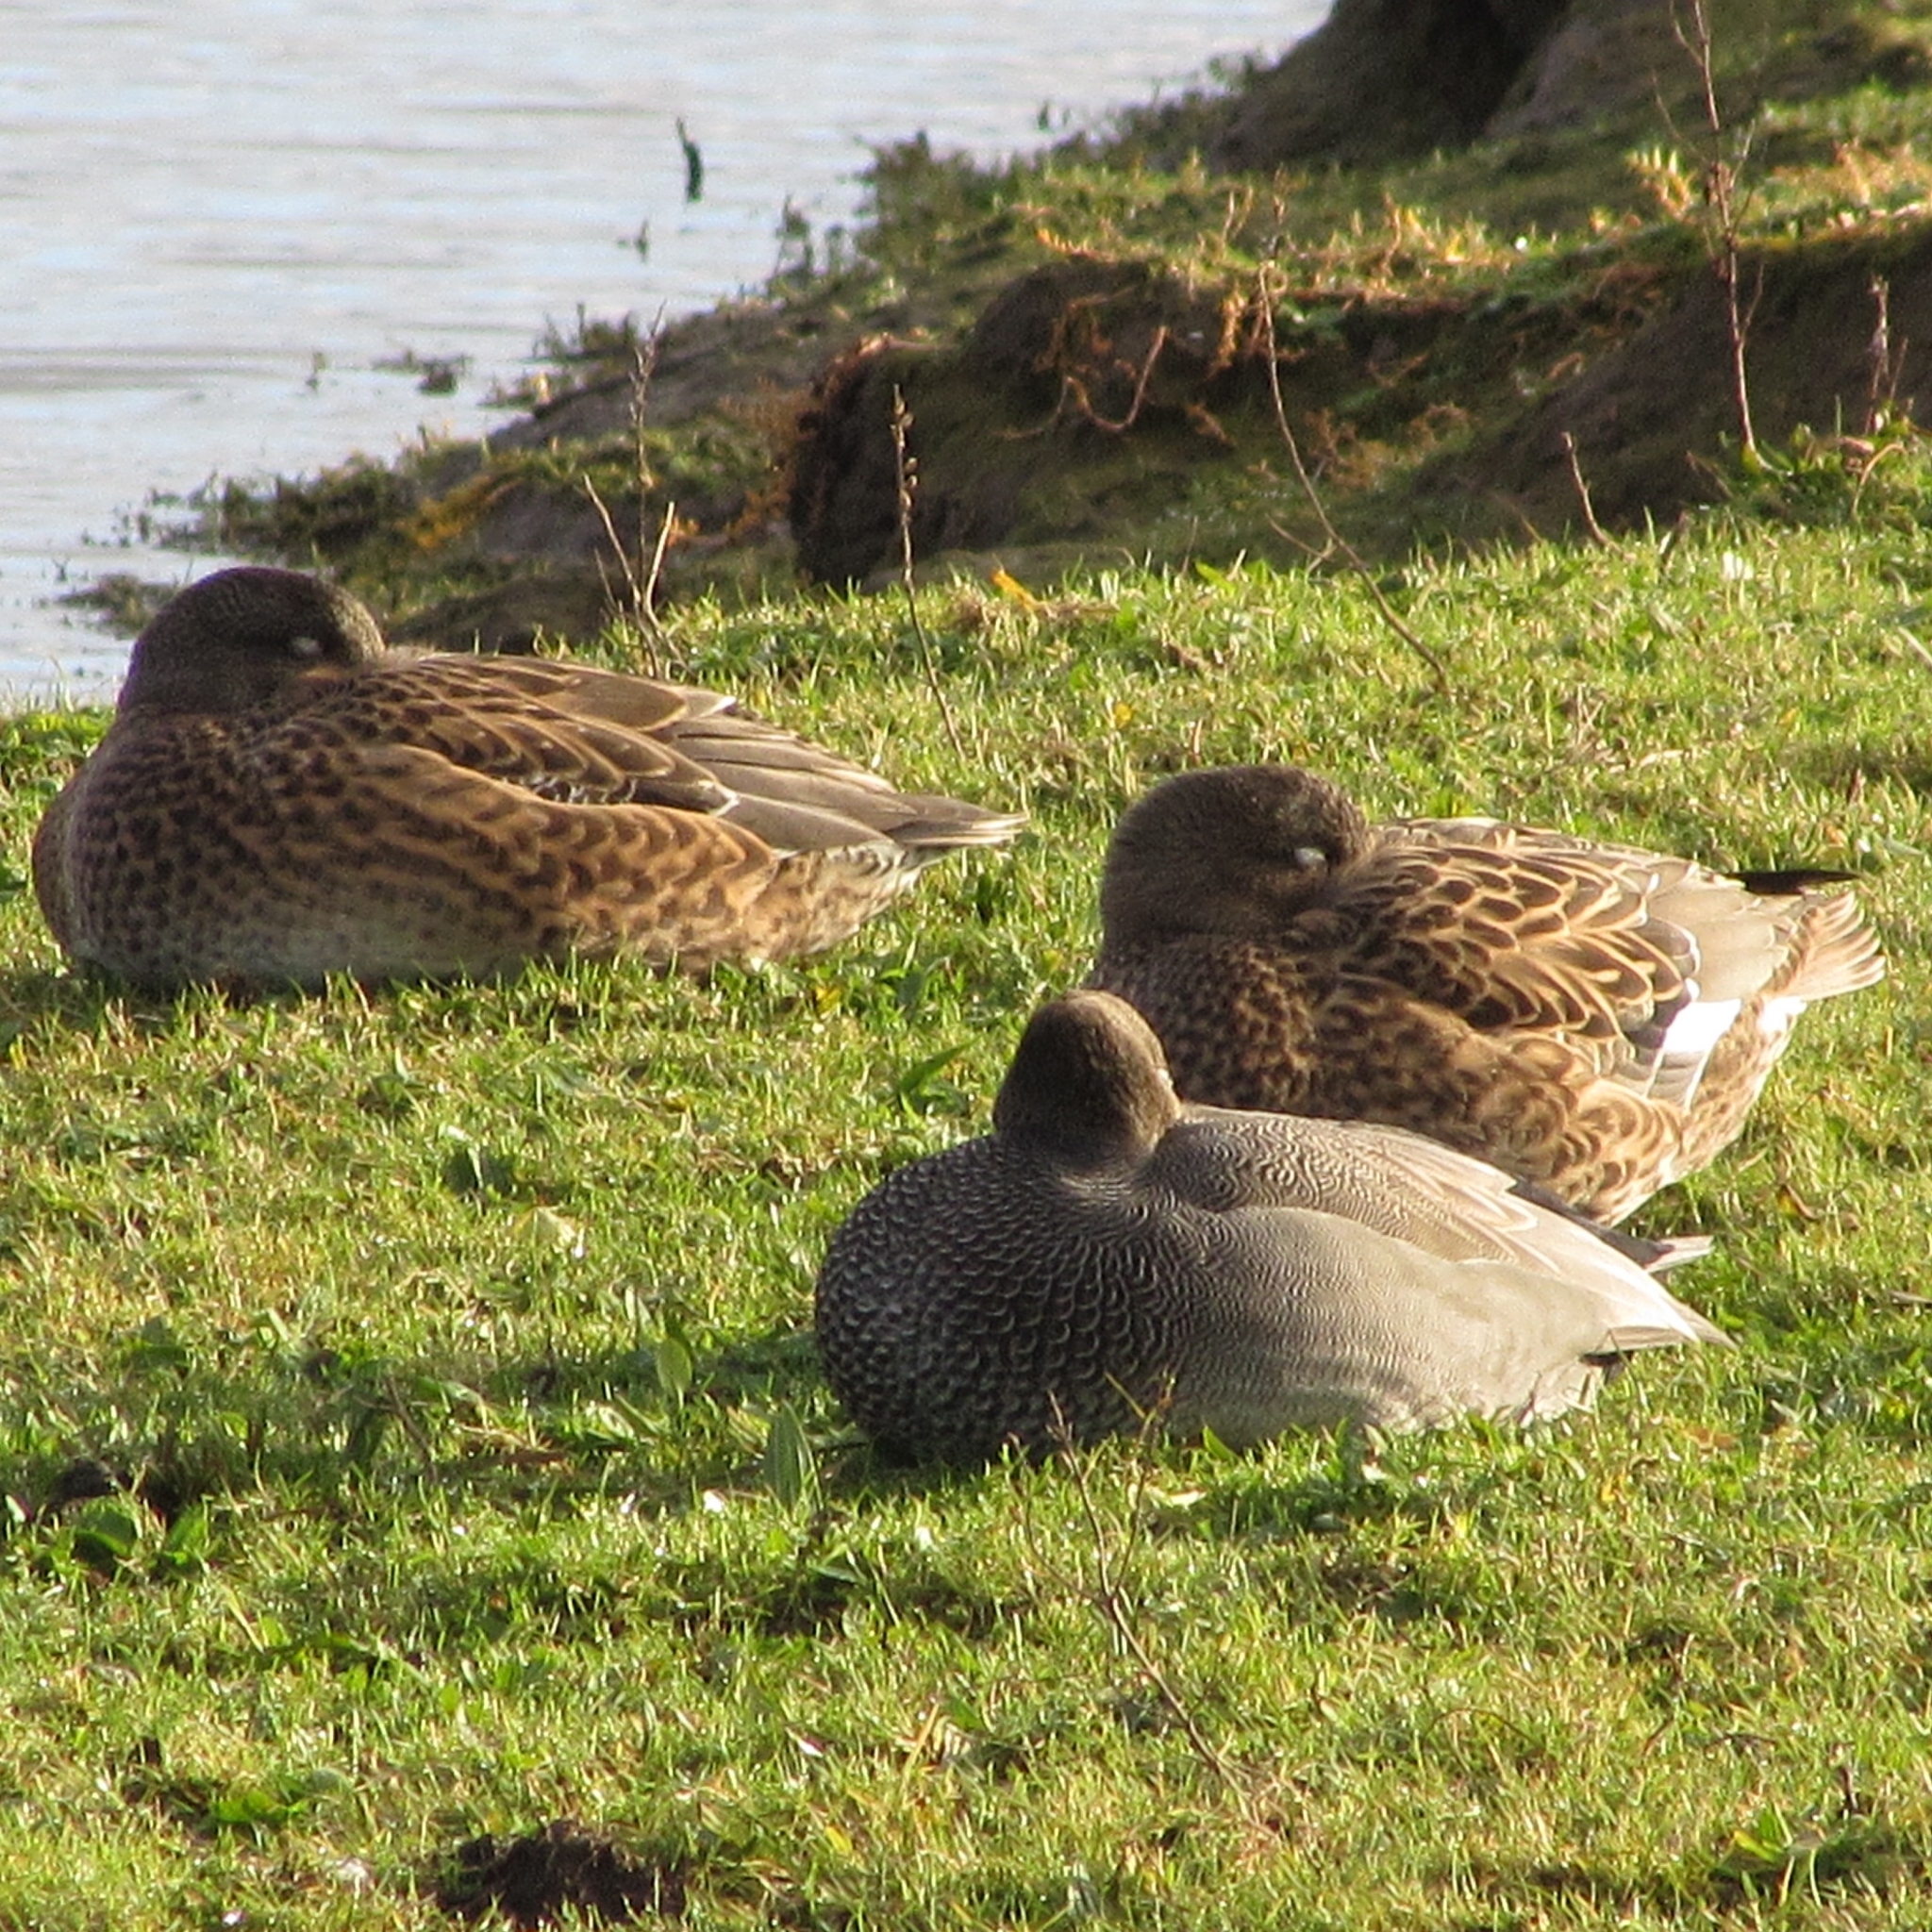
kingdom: Animalia
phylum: Chordata
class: Aves
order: Anseriformes
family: Anatidae
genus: Mareca
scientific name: Mareca strepera
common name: Gadwall
